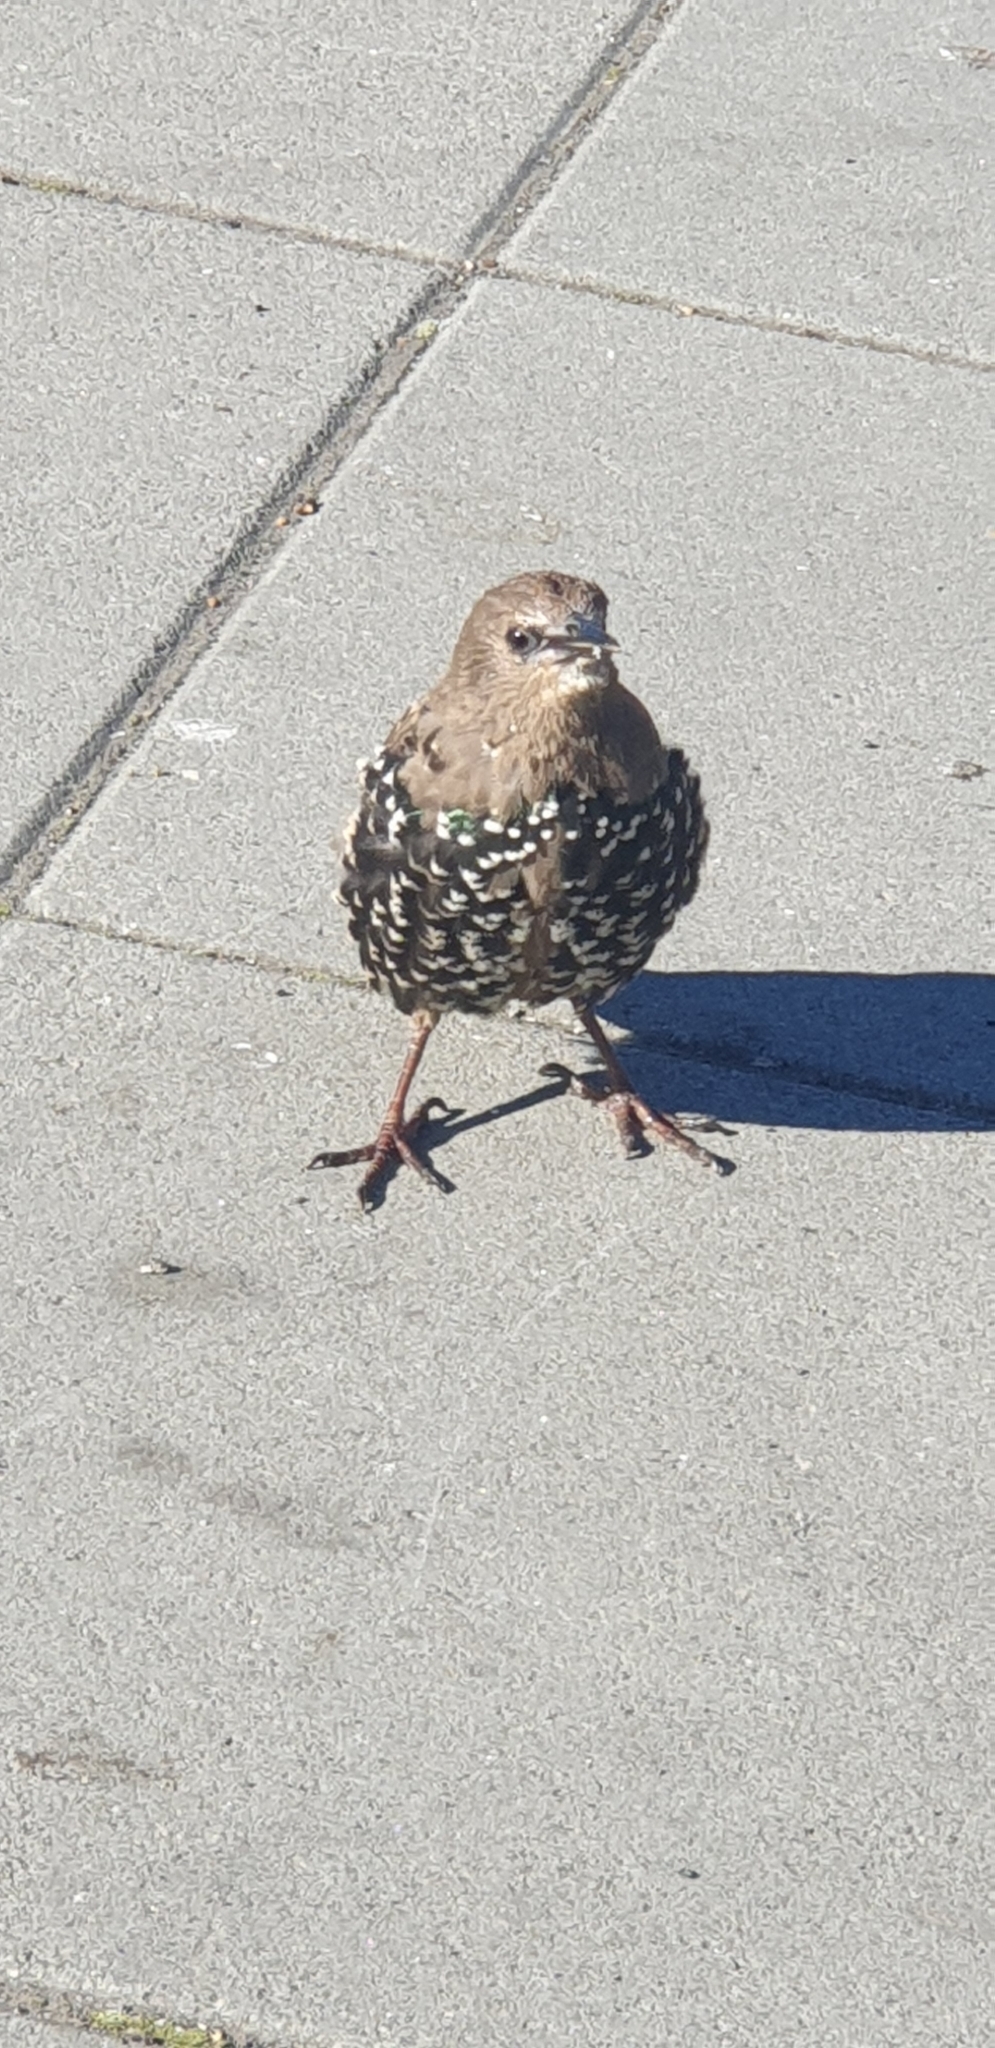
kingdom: Animalia
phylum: Chordata
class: Aves
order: Passeriformes
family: Sturnidae
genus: Sturnus
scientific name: Sturnus vulgaris
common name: Common starling
